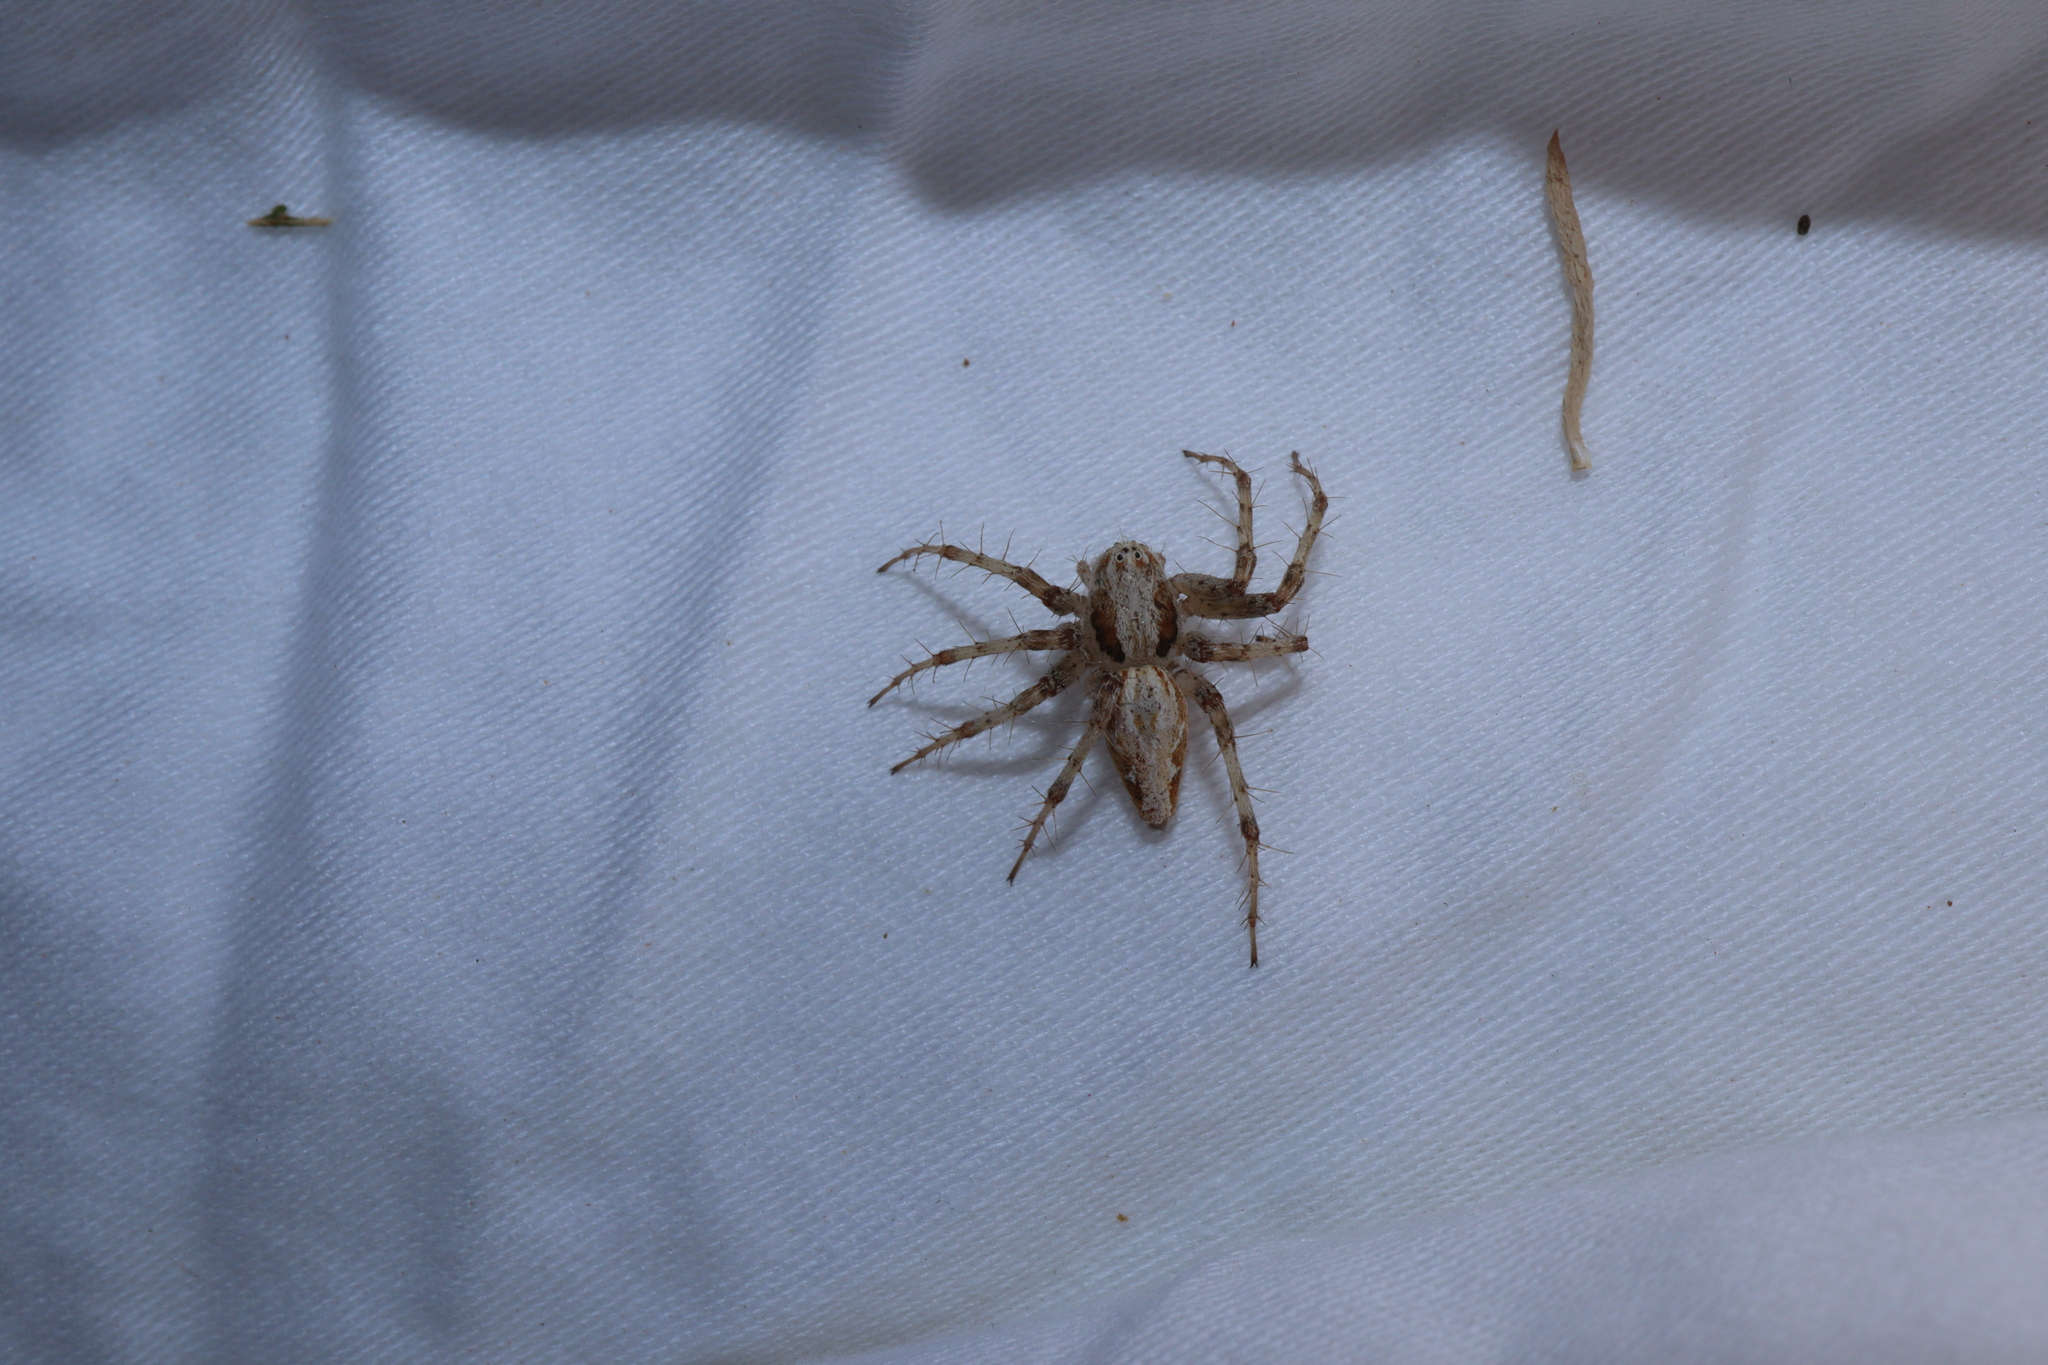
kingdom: Animalia
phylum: Arthropoda
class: Arachnida
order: Araneae
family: Oxyopidae
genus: Oxyopes
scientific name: Oxyopes amoenus
